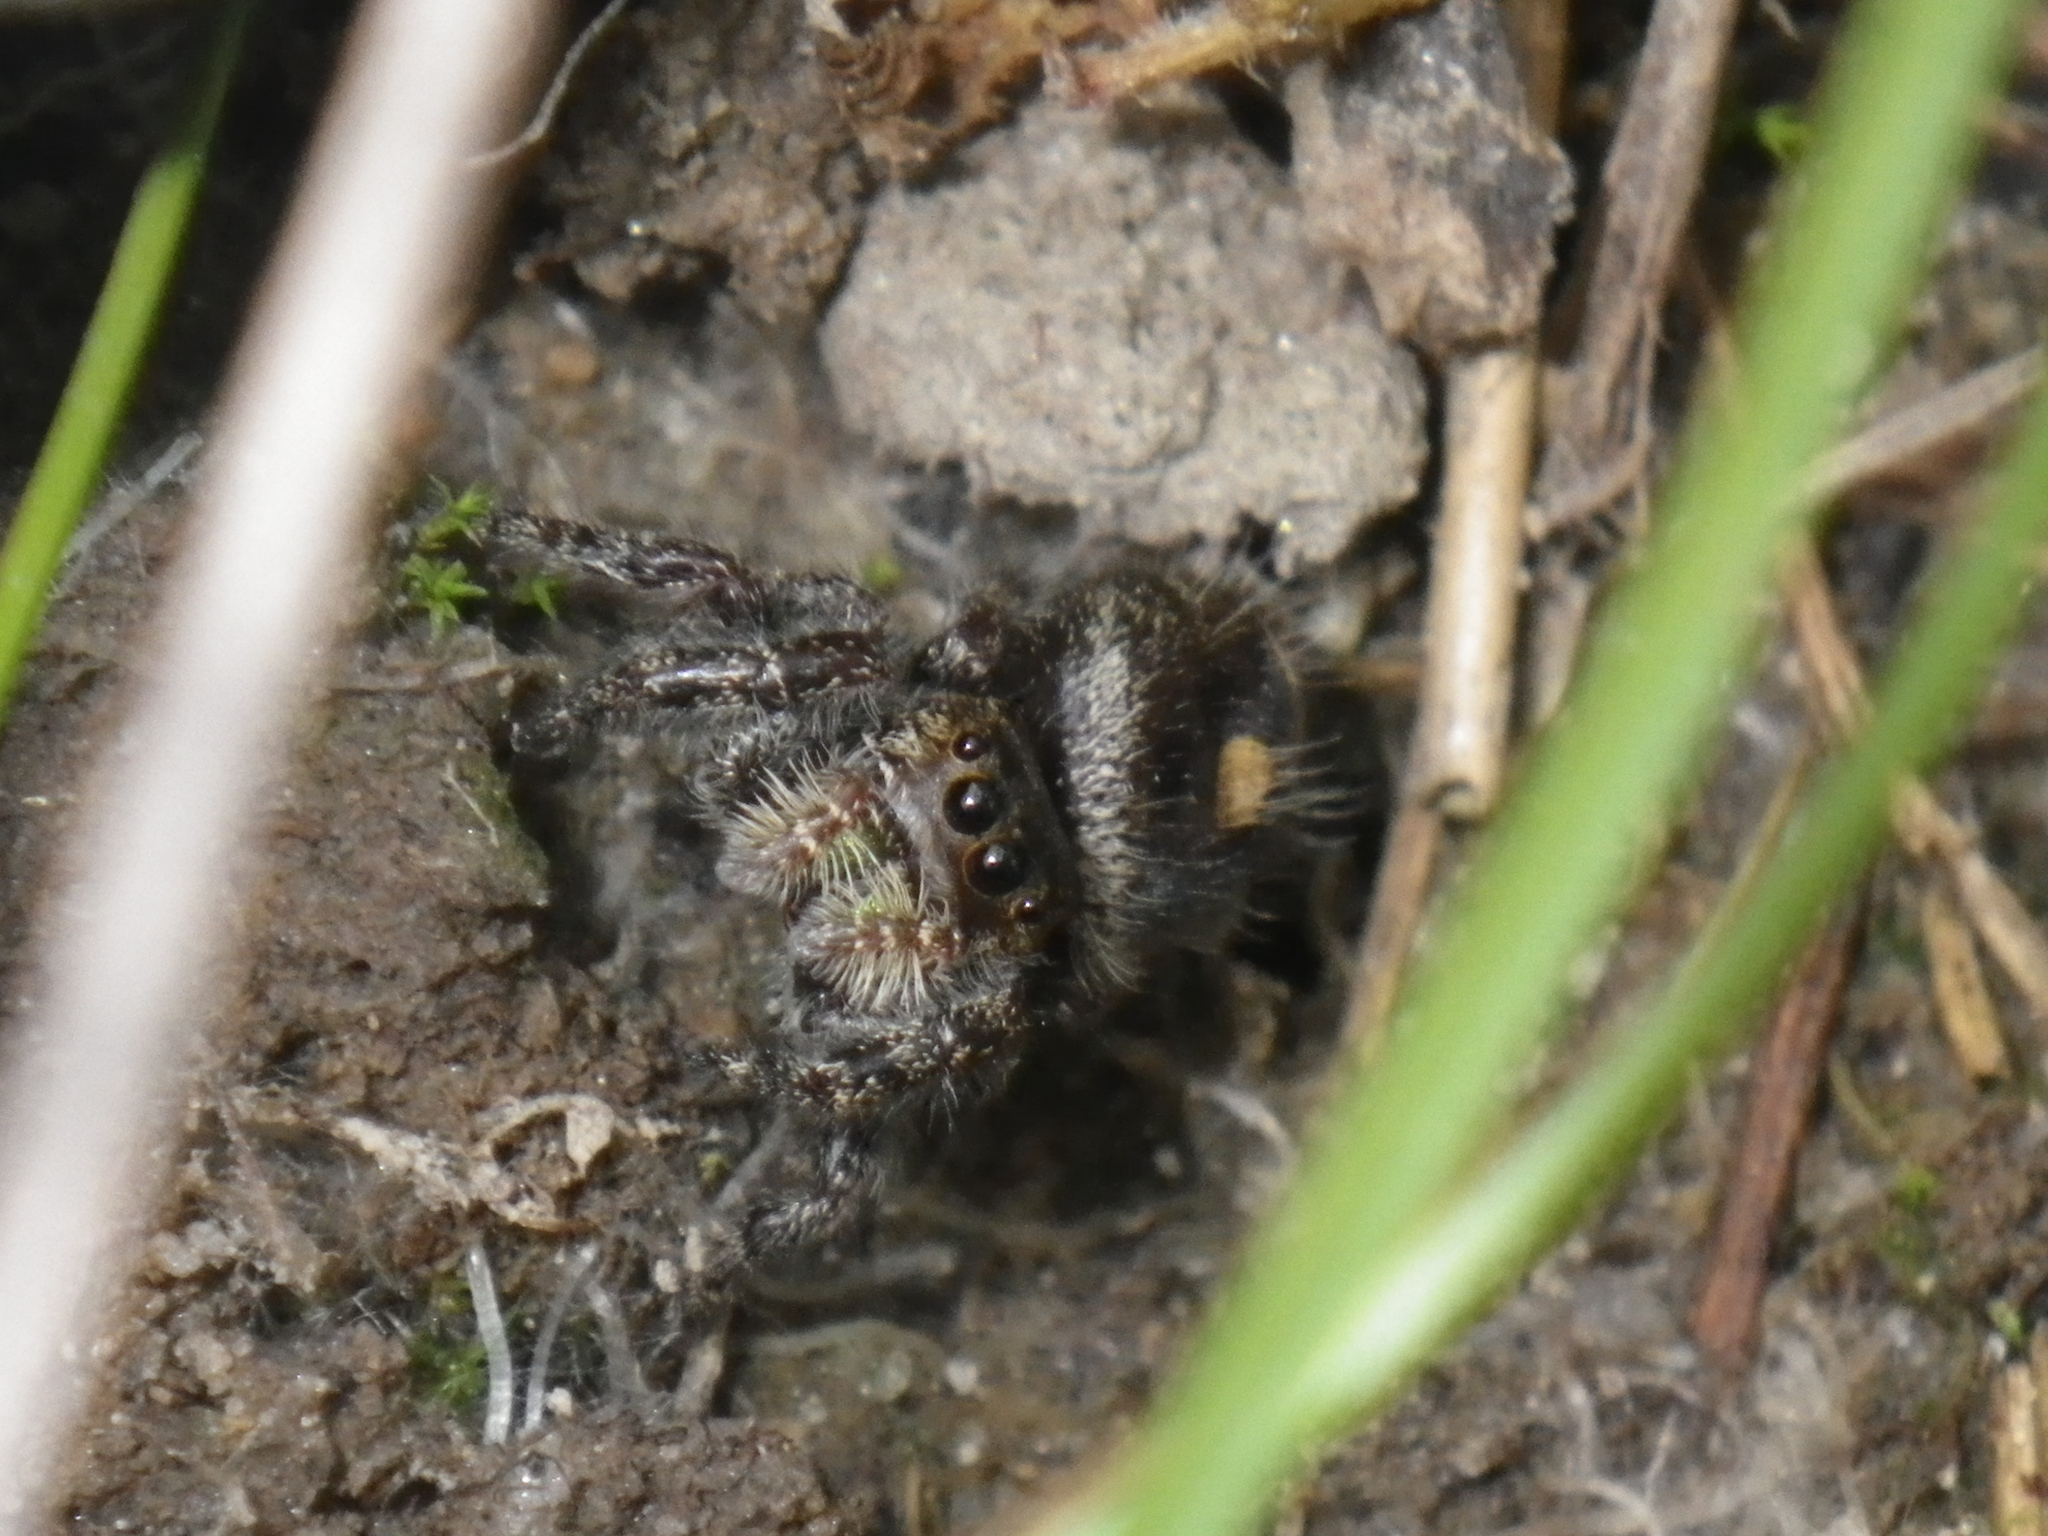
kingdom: Animalia
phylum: Arthropoda
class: Arachnida
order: Araneae
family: Salticidae
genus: Phidippus
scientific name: Phidippus audax
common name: Bold jumper
